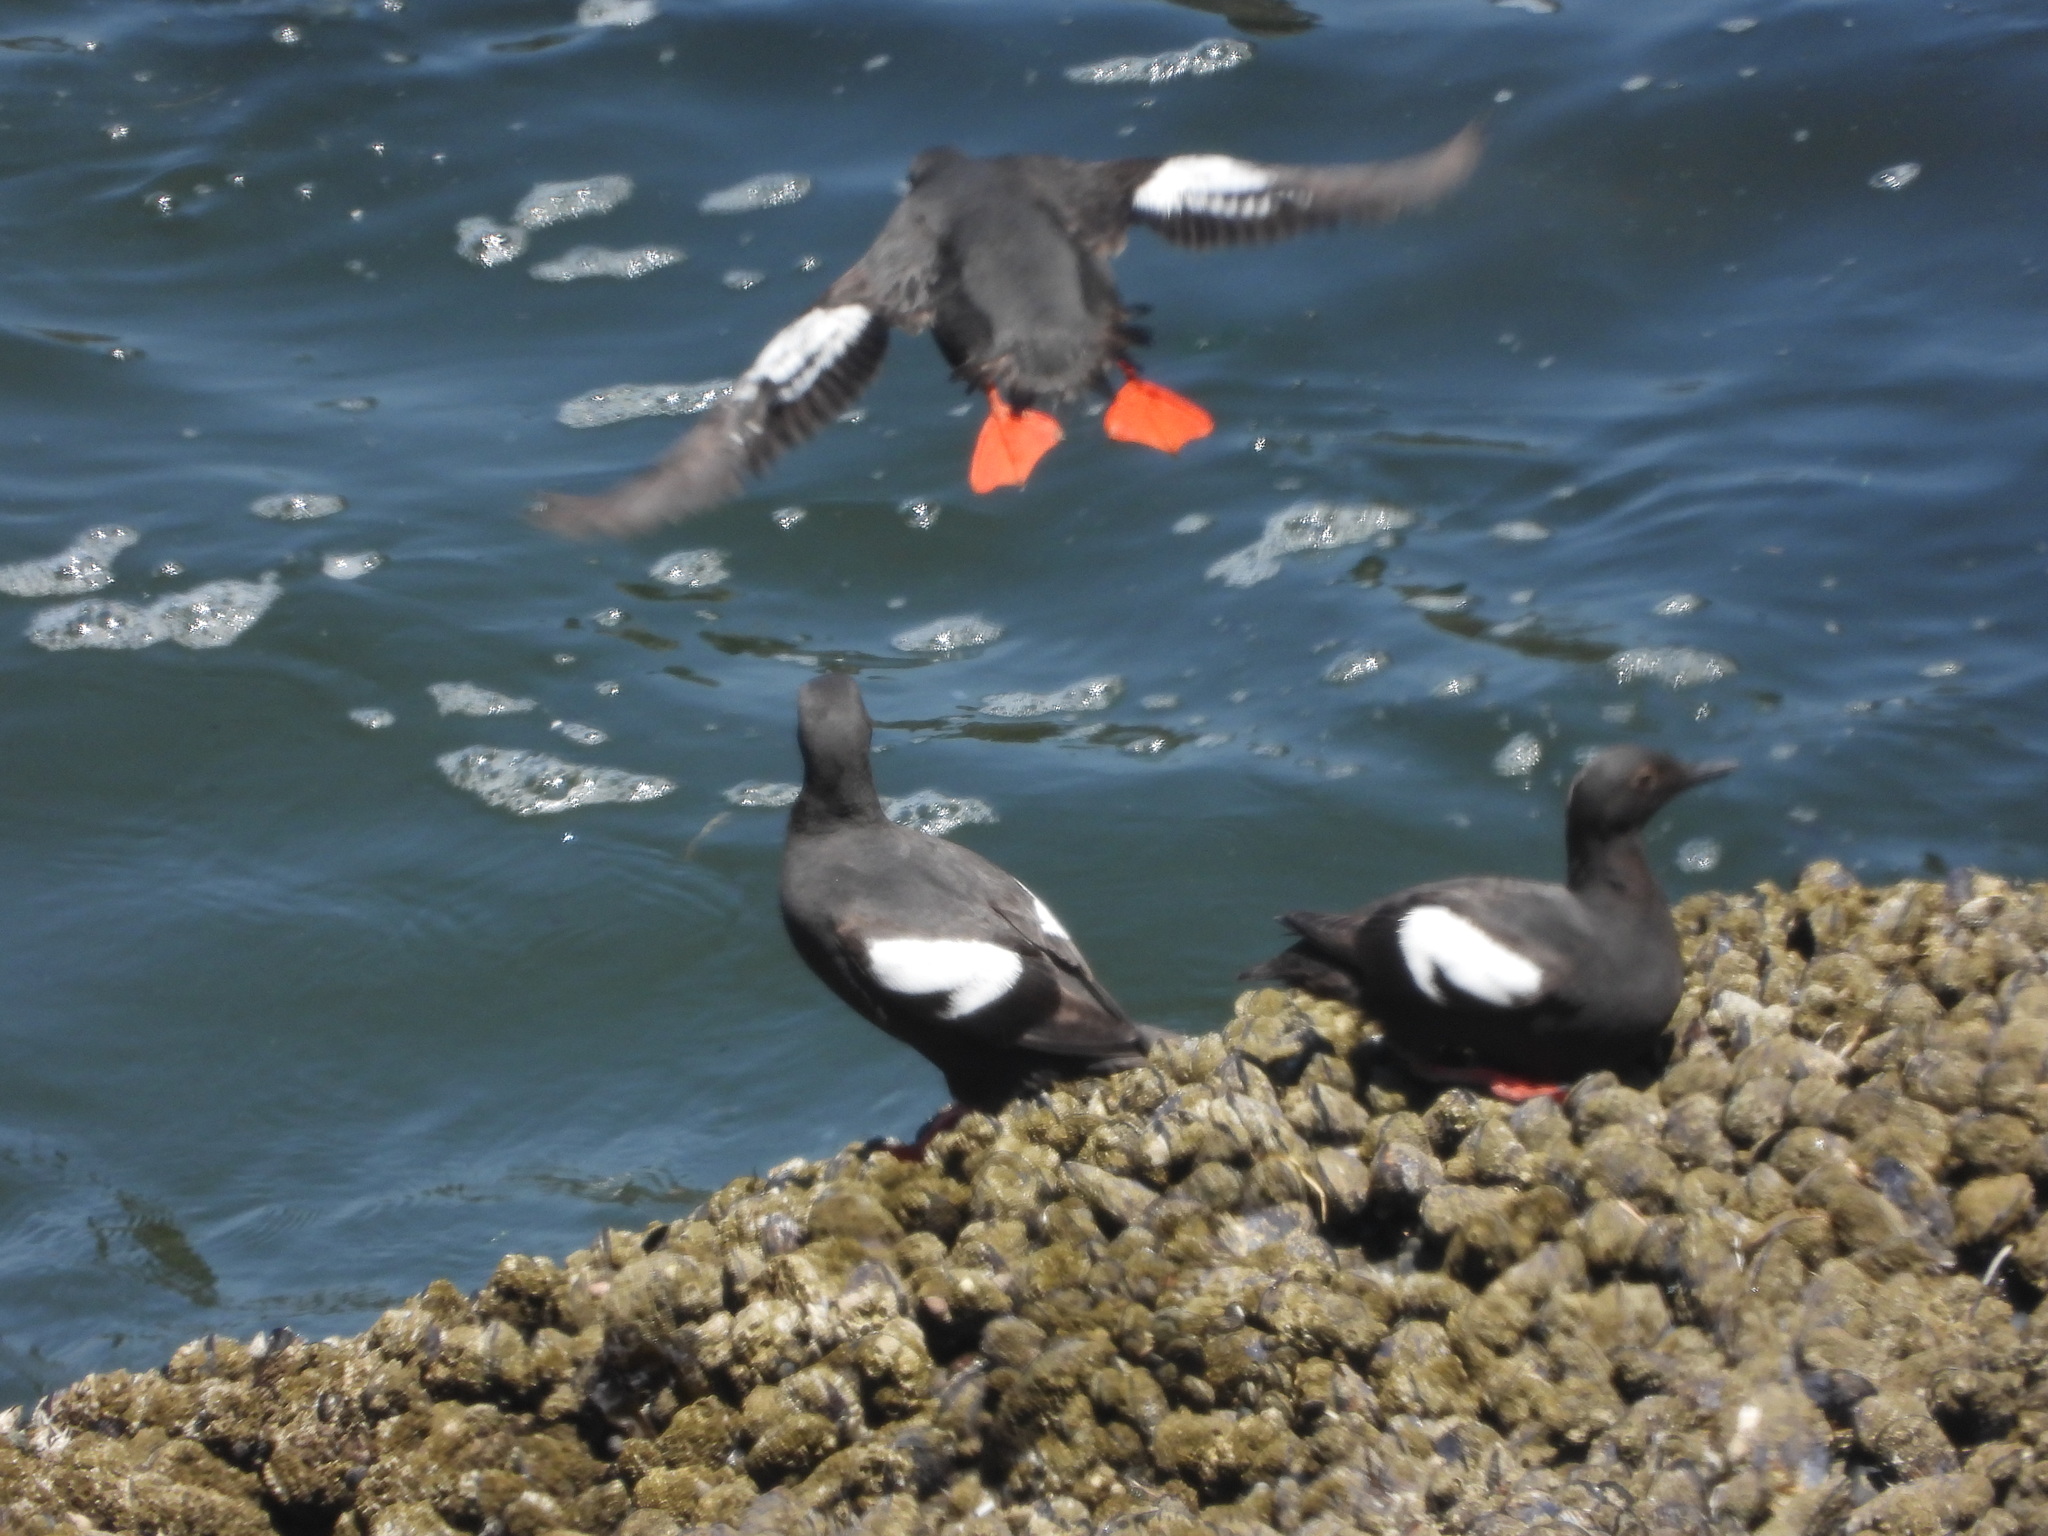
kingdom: Animalia
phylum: Chordata
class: Aves
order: Charadriiformes
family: Alcidae
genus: Cepphus
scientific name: Cepphus columba
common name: Pigeon guillemot
